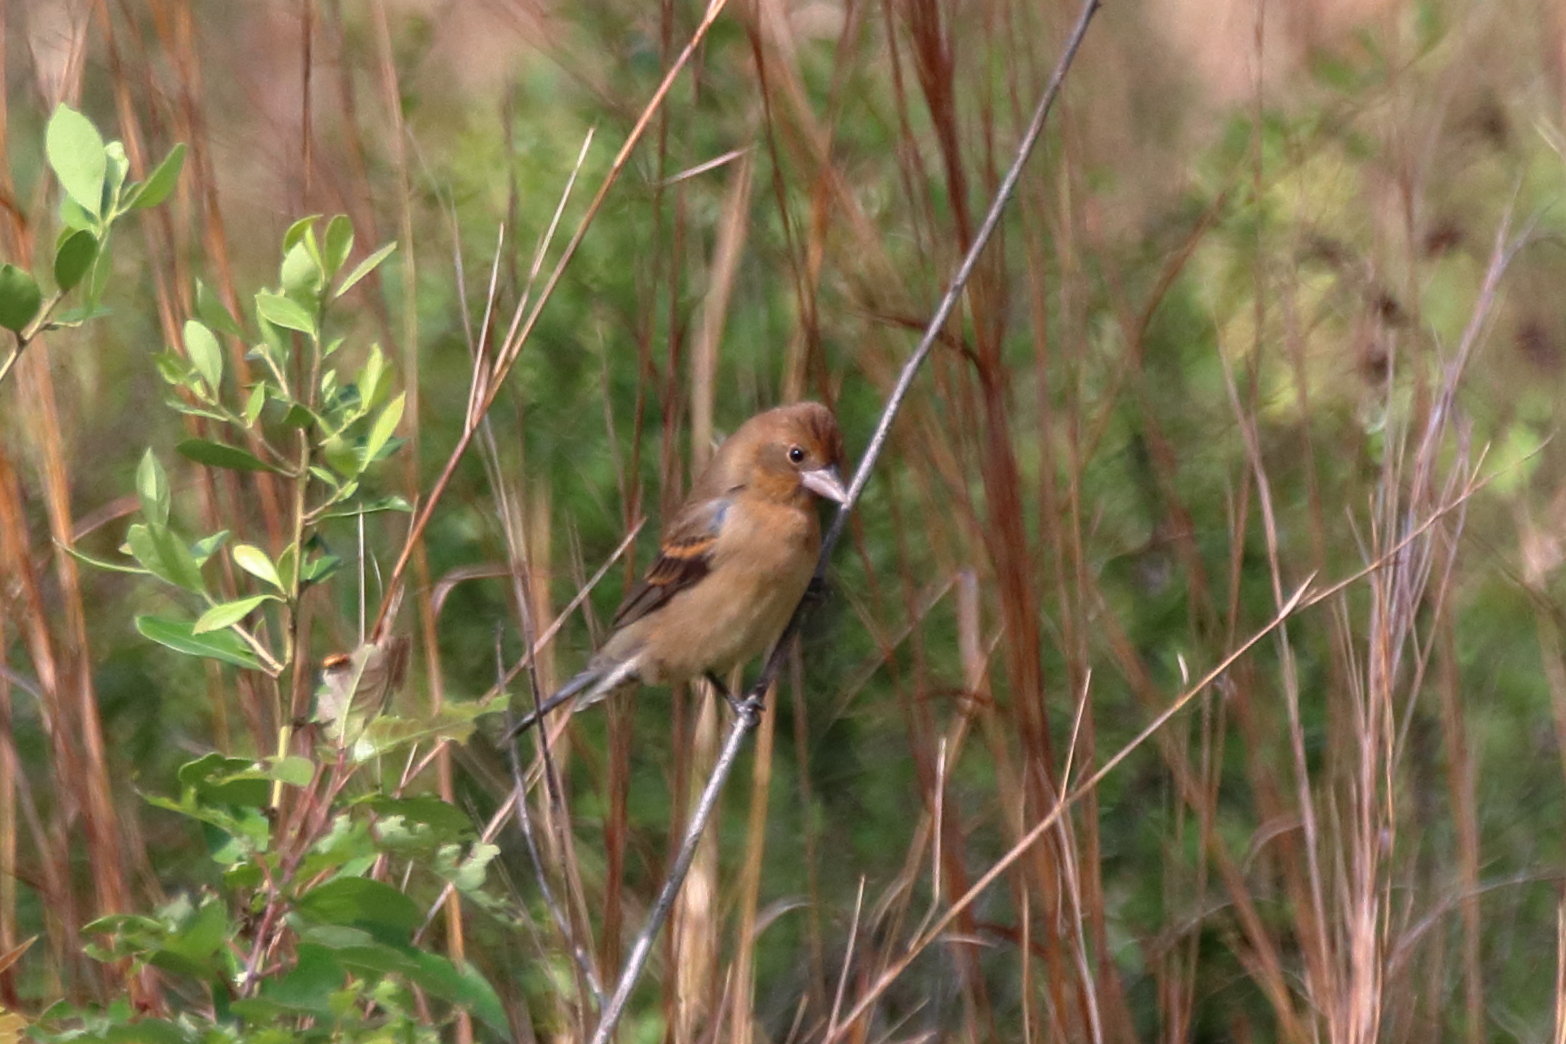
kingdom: Animalia
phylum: Chordata
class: Aves
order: Passeriformes
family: Cardinalidae
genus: Passerina
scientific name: Passerina caerulea
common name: Blue grosbeak
